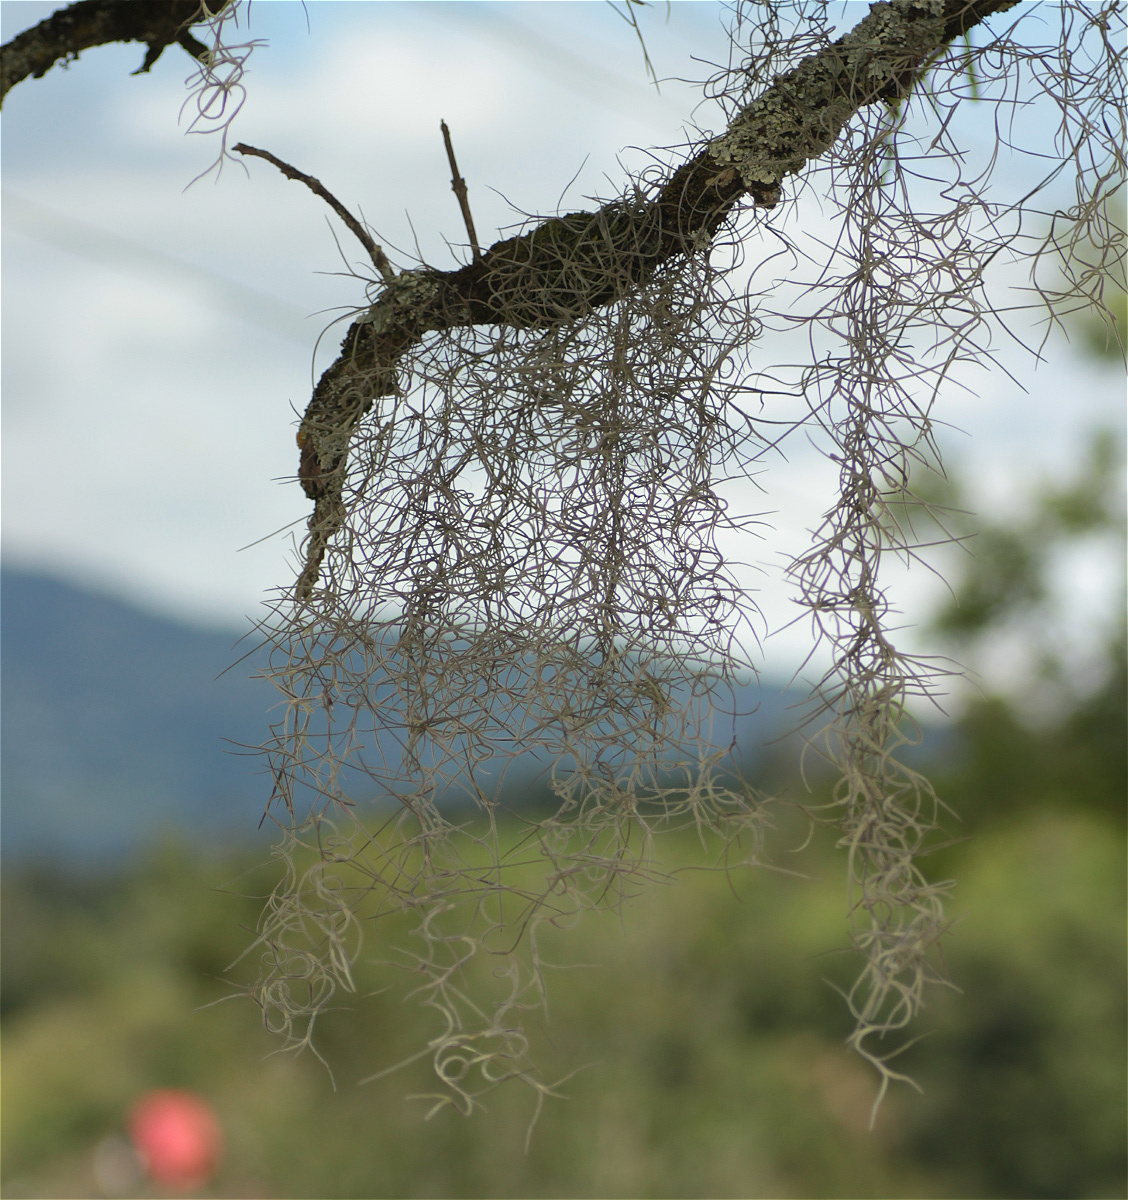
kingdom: Plantae
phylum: Tracheophyta
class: Liliopsida
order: Poales
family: Bromeliaceae
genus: Tillandsia
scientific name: Tillandsia usneoides
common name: Spanish moss
